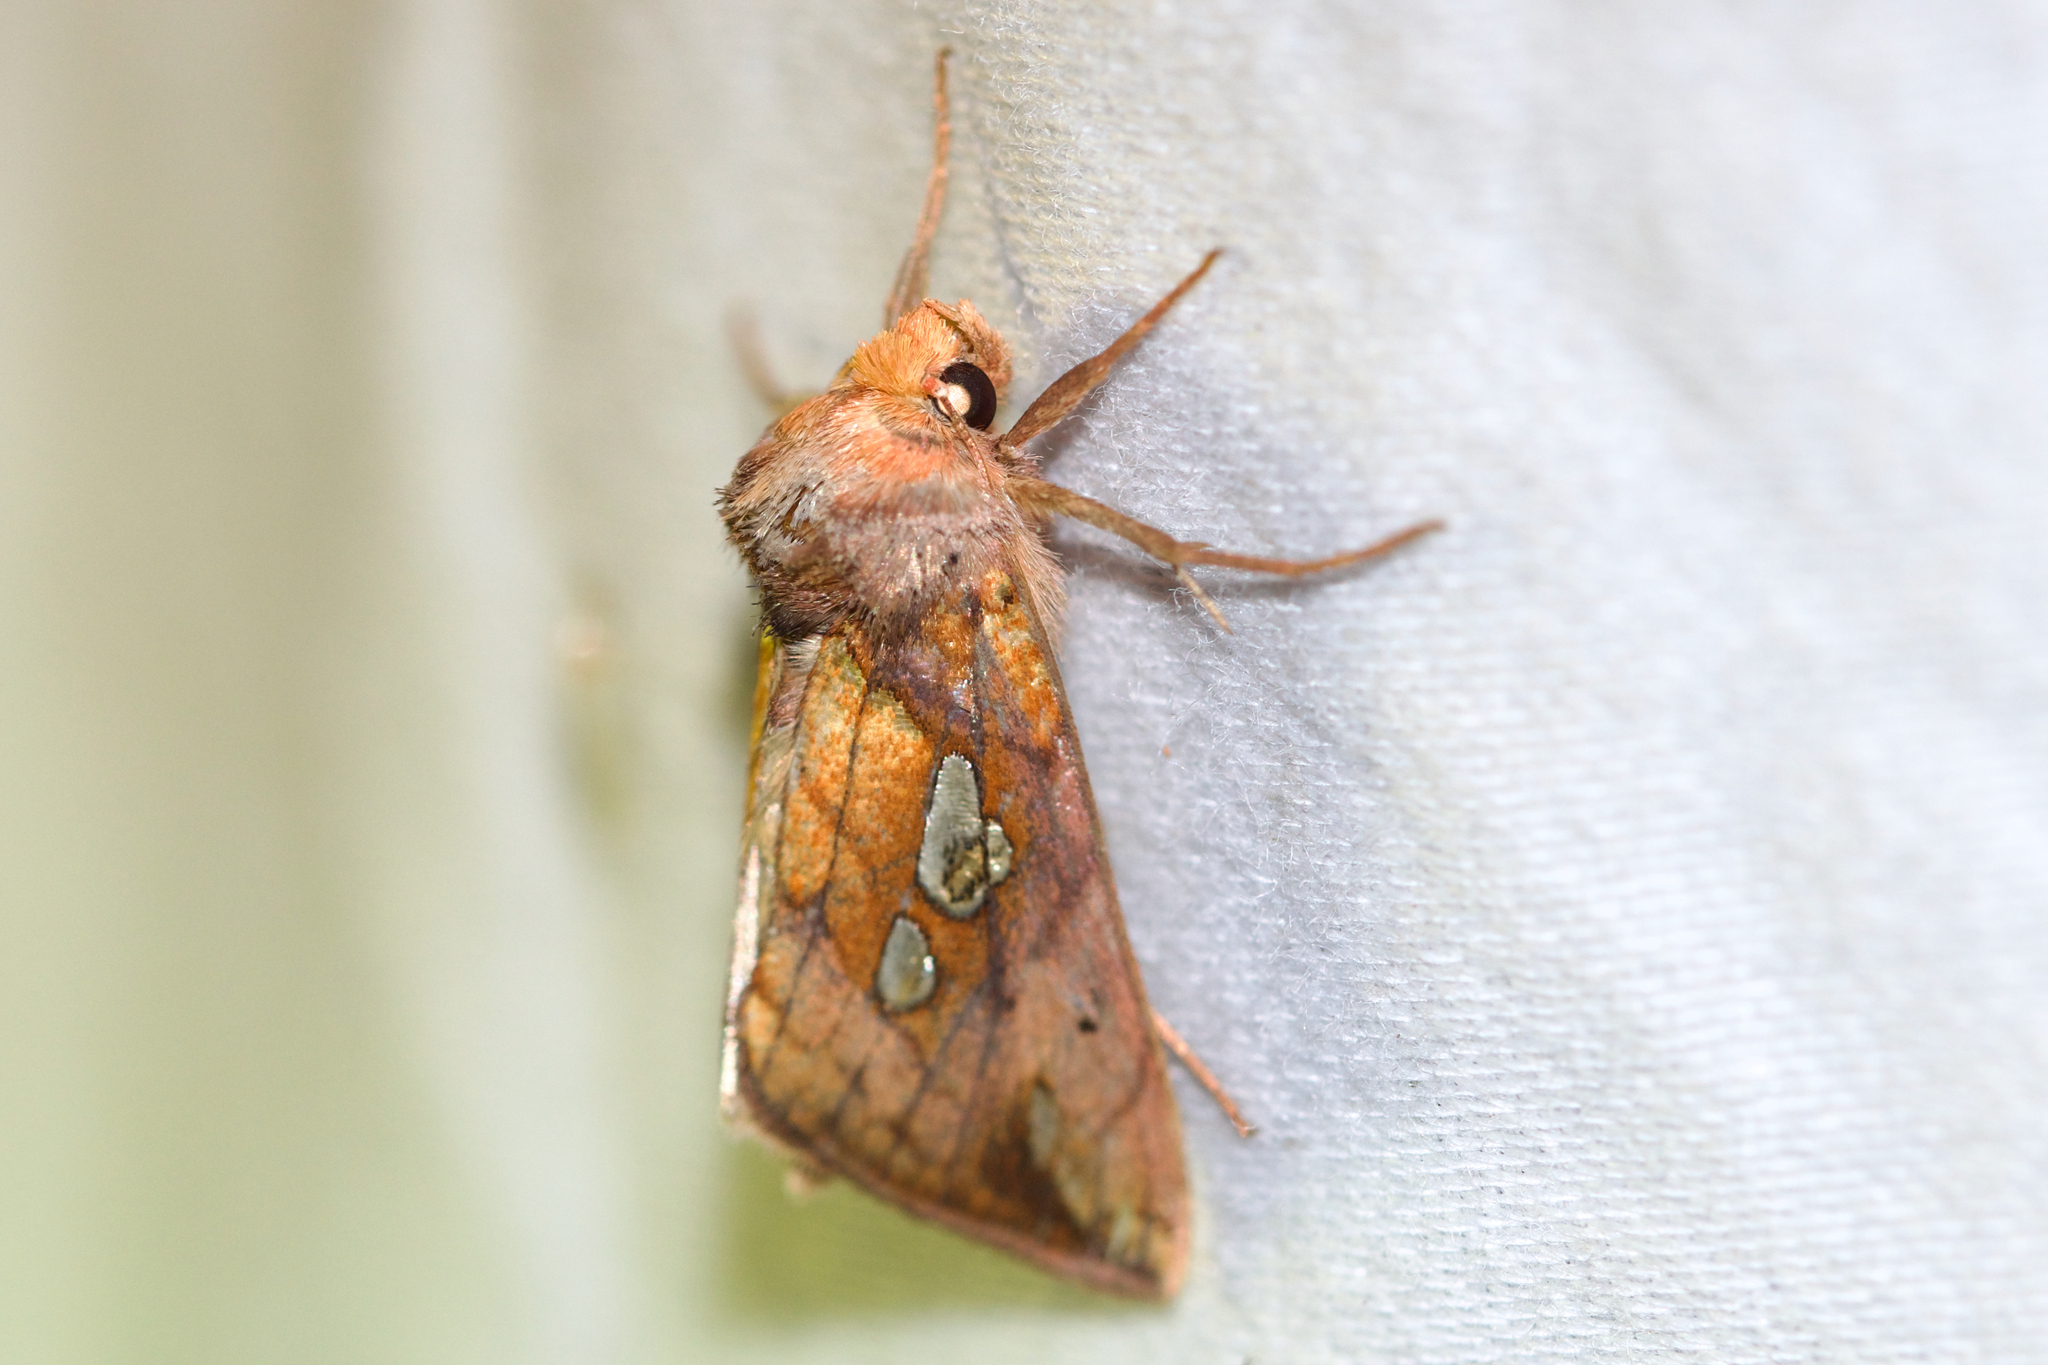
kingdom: Animalia
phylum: Arthropoda
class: Insecta
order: Lepidoptera
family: Noctuidae
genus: Plusia
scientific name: Plusia putnami
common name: Lempke's gold spot
